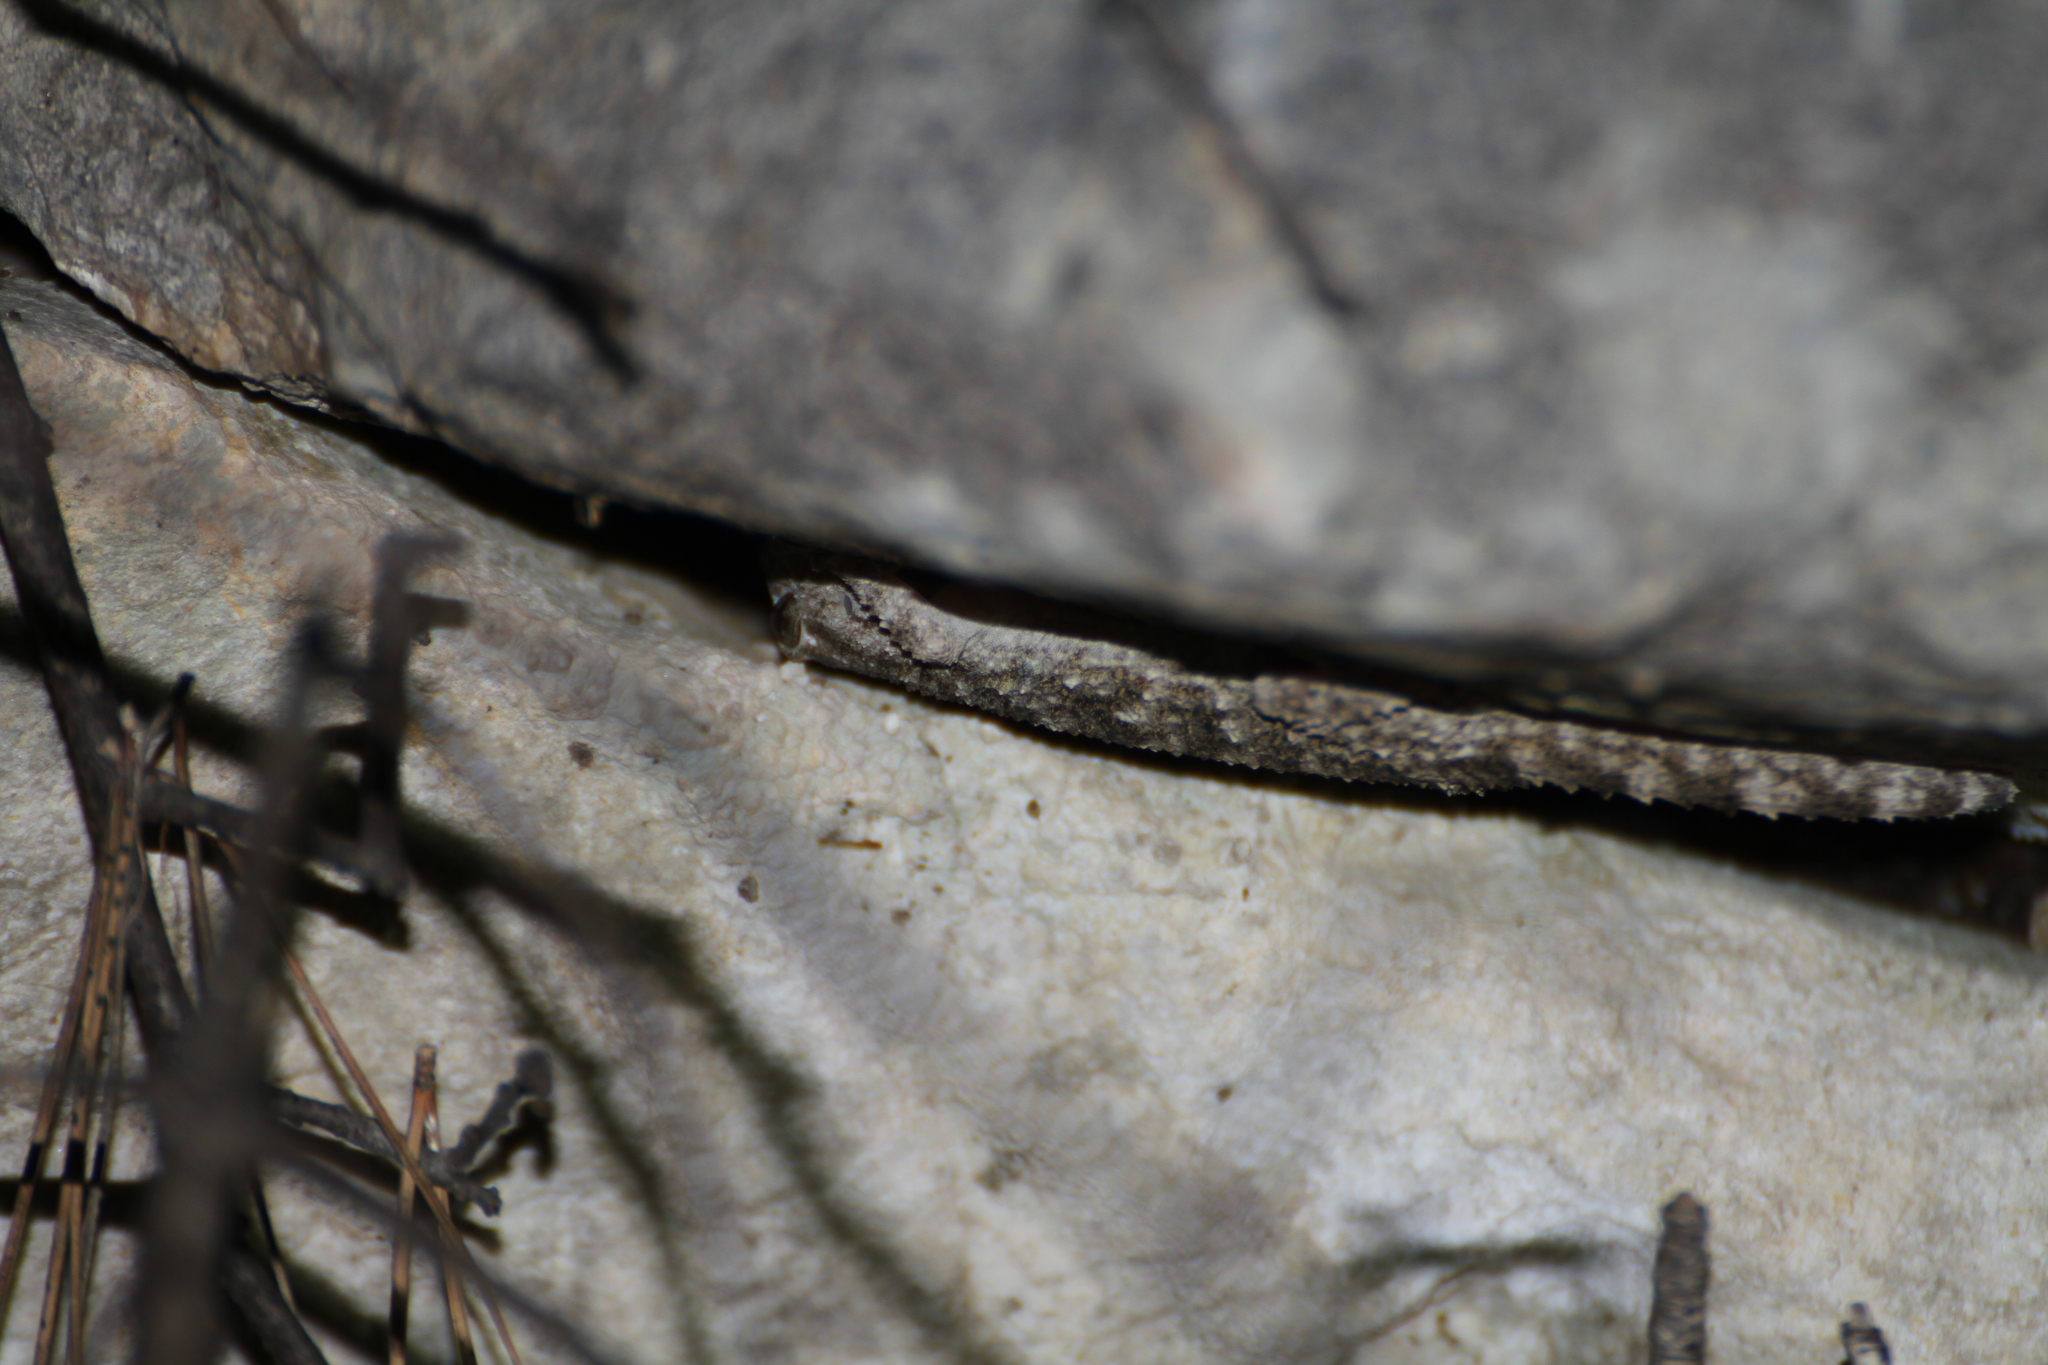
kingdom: Animalia
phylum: Chordata
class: Squamata
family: Phyllodactylidae
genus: Tarentola
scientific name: Tarentola mauritanica
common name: Moorish gecko
